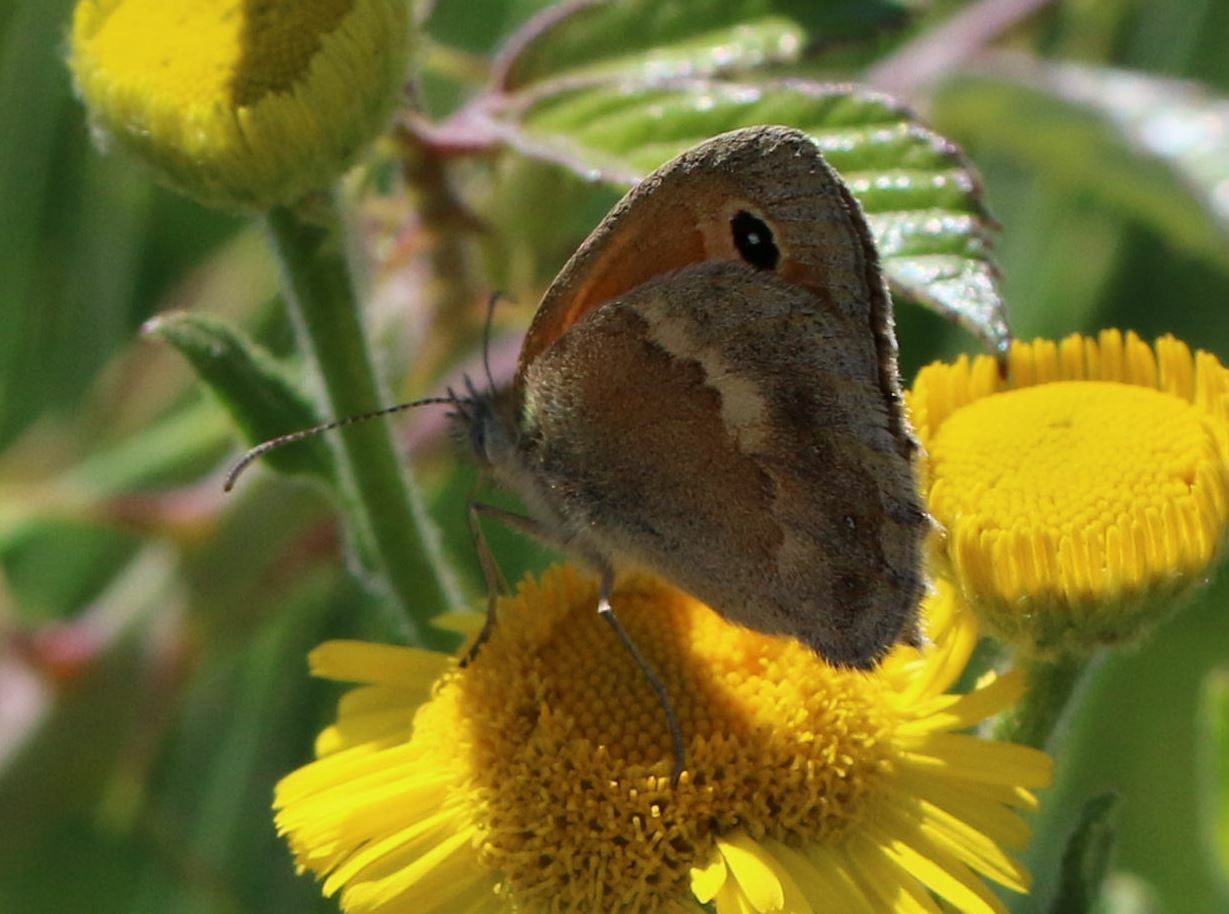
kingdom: Animalia
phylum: Arthropoda
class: Insecta
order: Lepidoptera
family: Nymphalidae
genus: Coenonympha
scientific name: Coenonympha pamphilus
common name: Small heath
